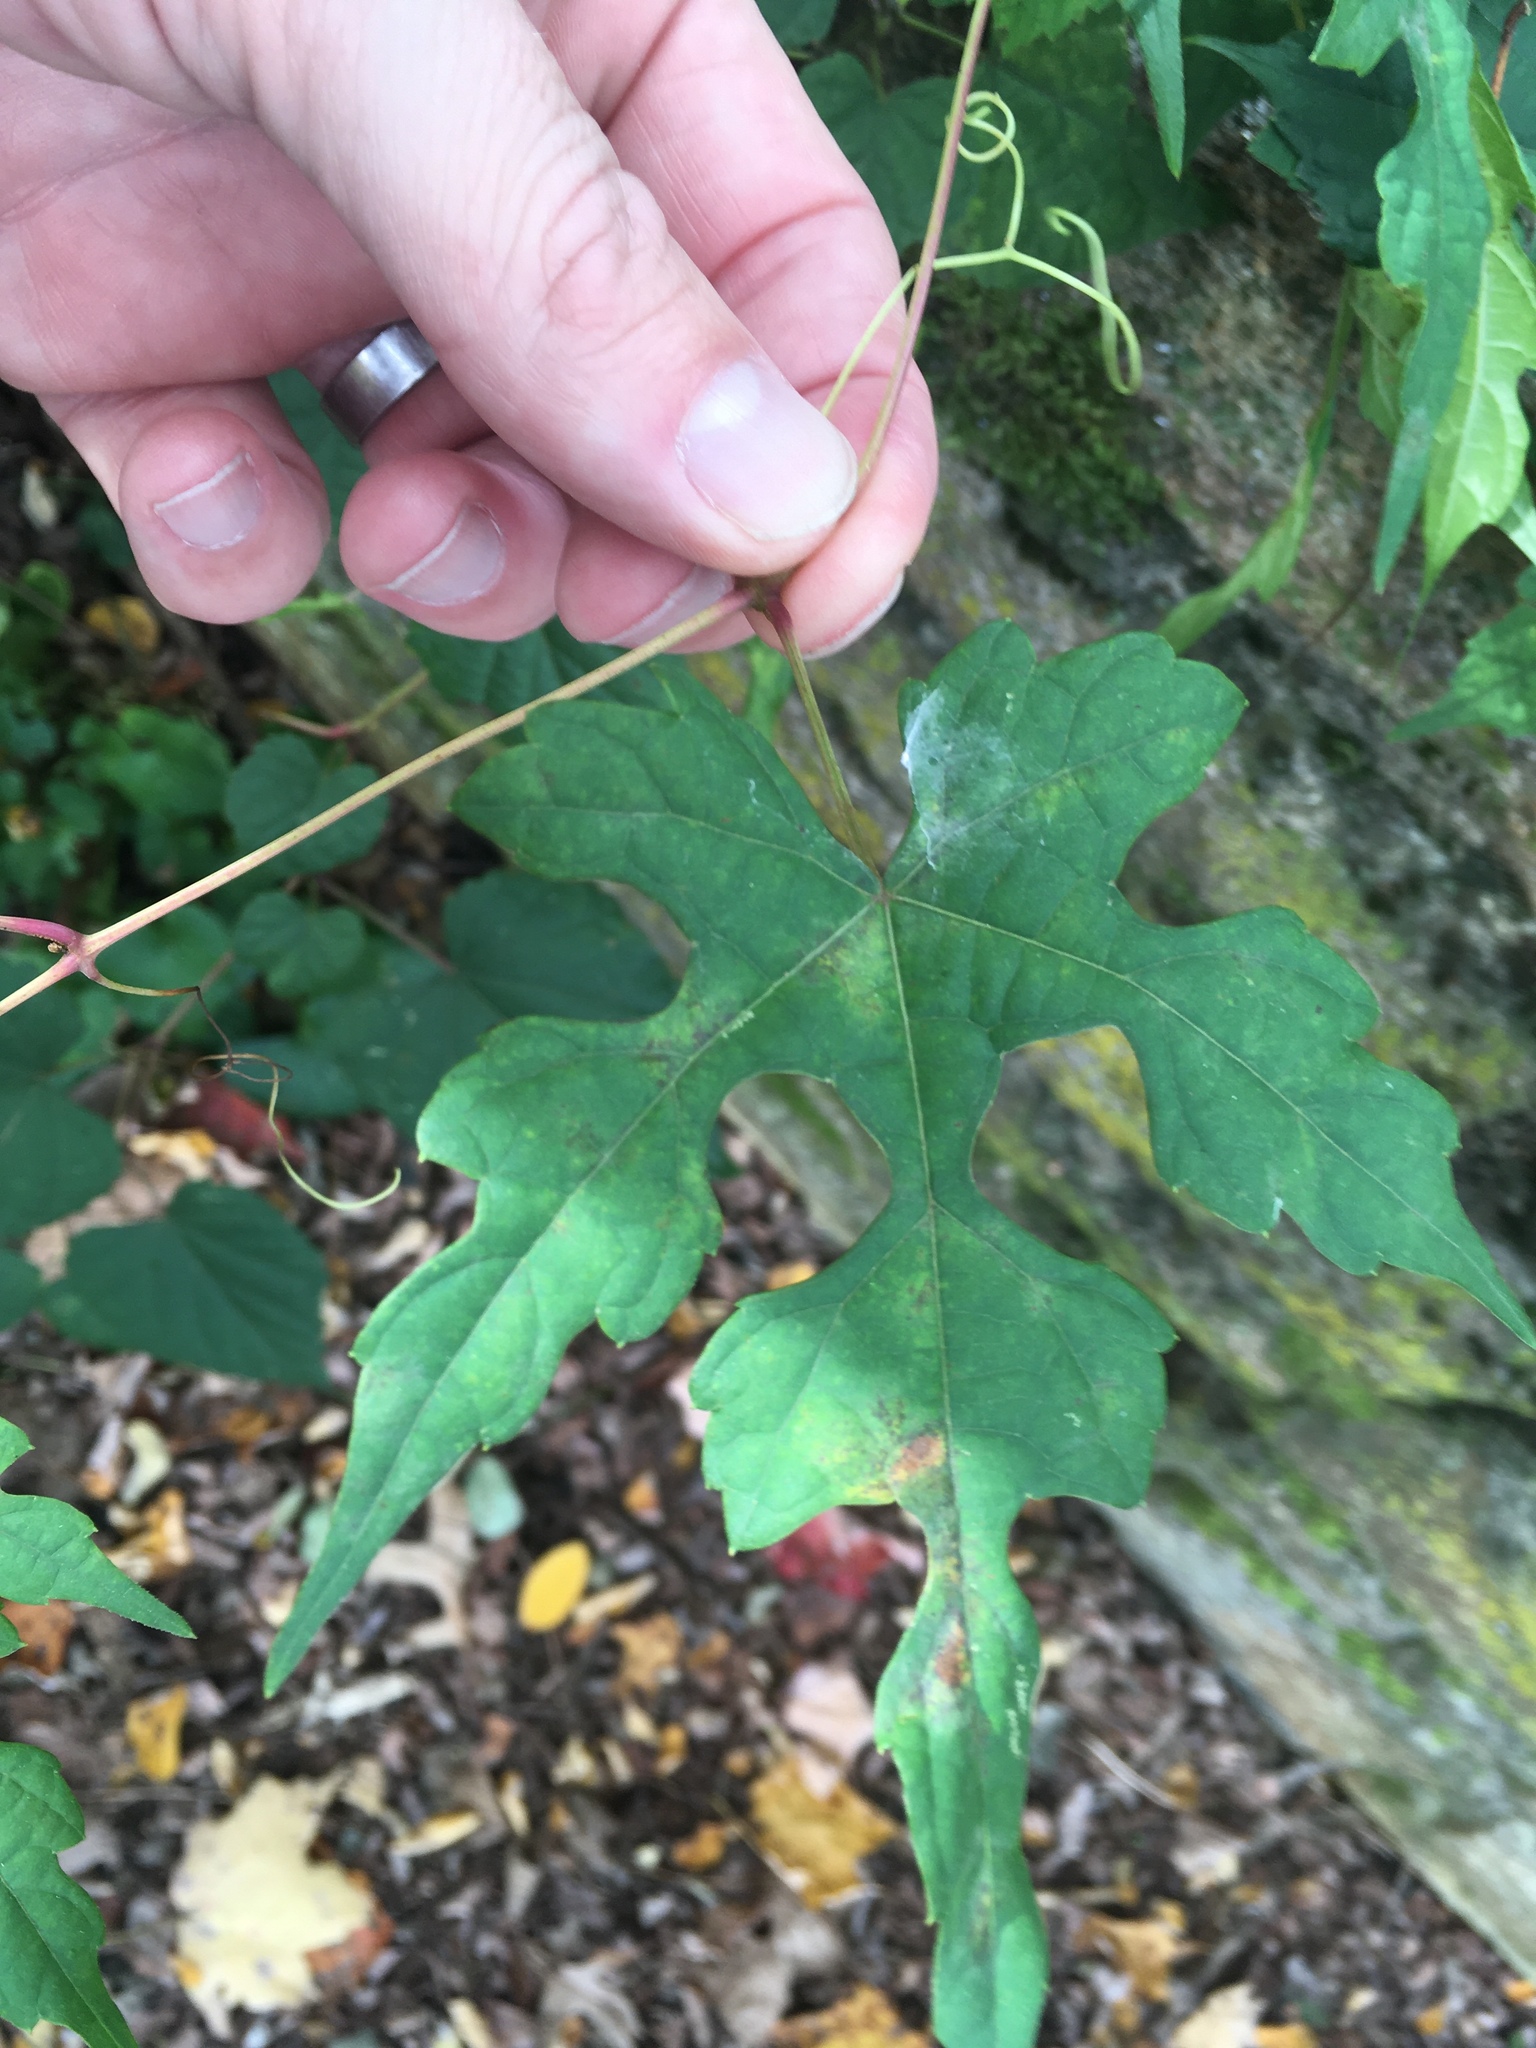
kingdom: Plantae
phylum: Tracheophyta
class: Magnoliopsida
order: Vitales
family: Vitaceae
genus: Ampelopsis
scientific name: Ampelopsis glandulosa
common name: Amur peppervine
